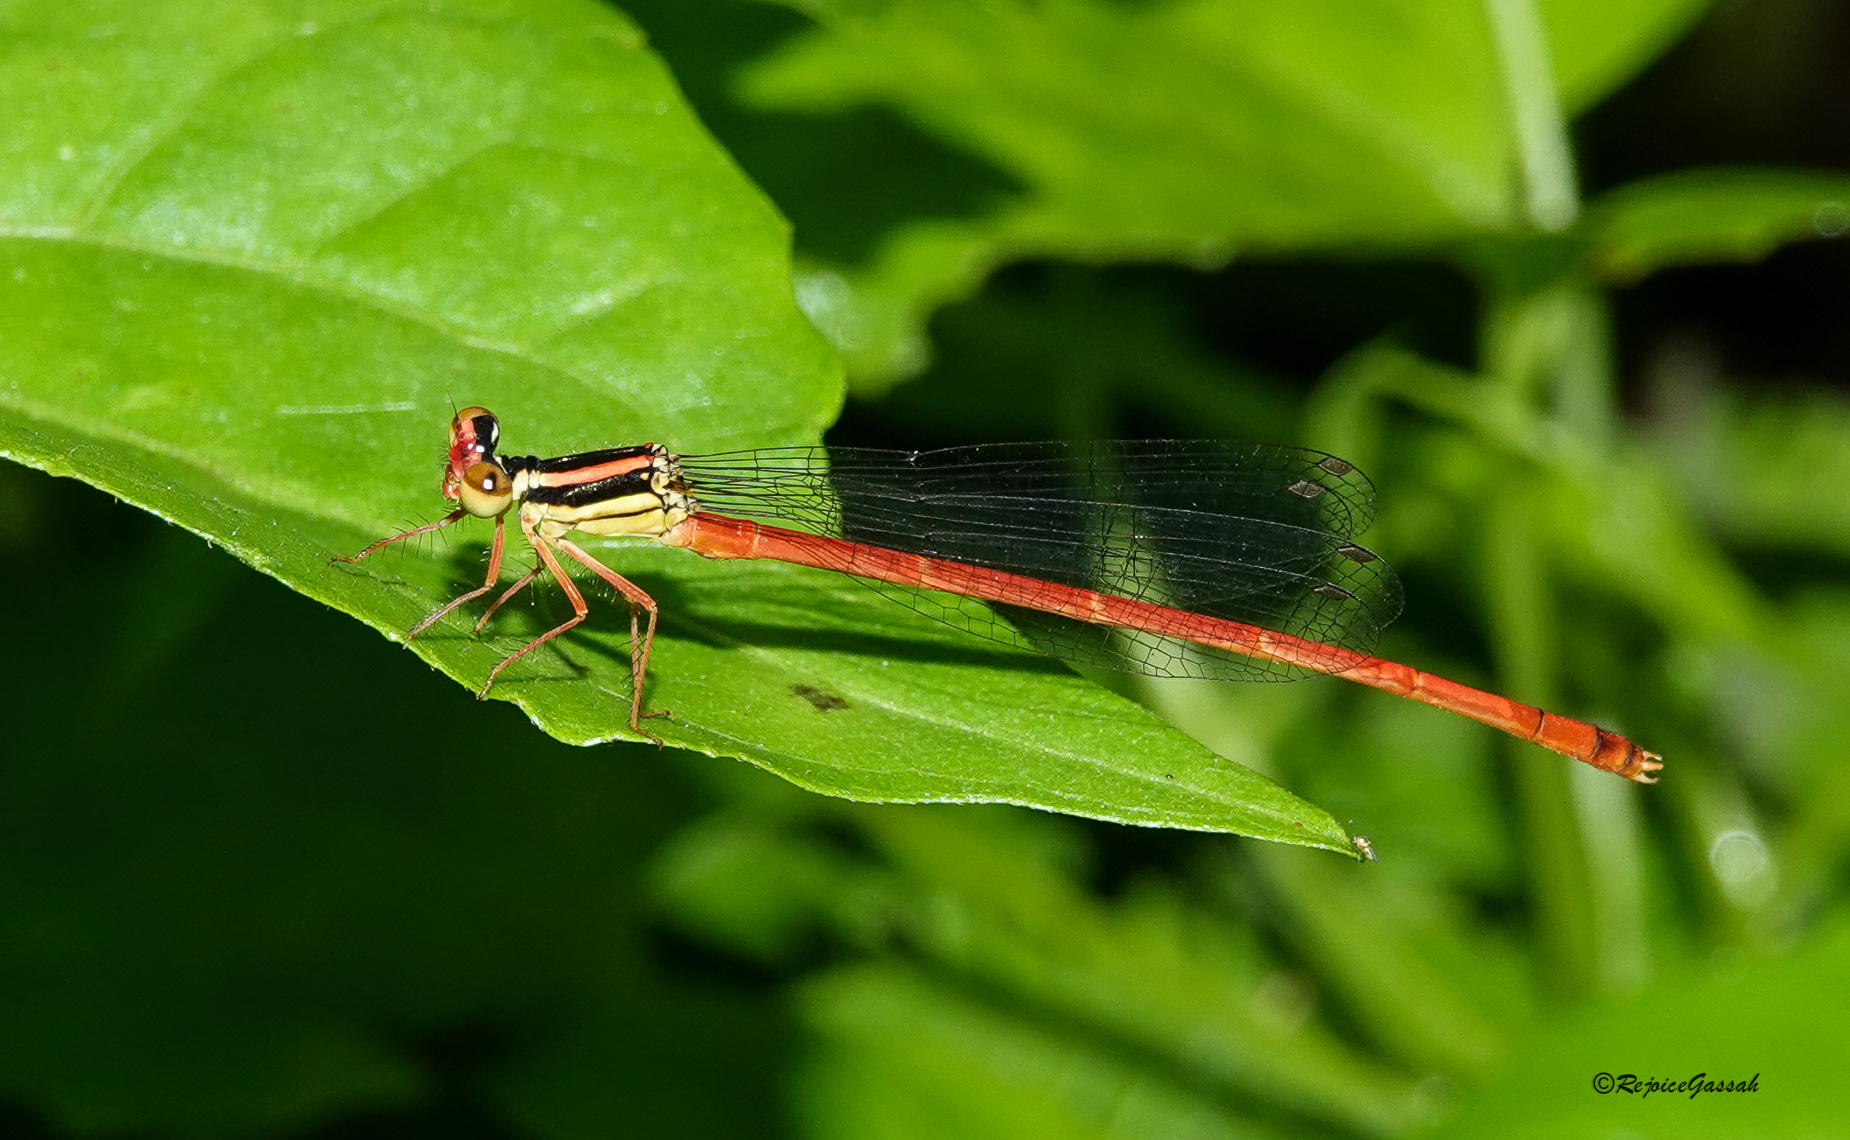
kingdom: Animalia
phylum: Arthropoda
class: Insecta
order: Odonata
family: Platycnemididae
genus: Calicnemia
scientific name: Calicnemia eximia
